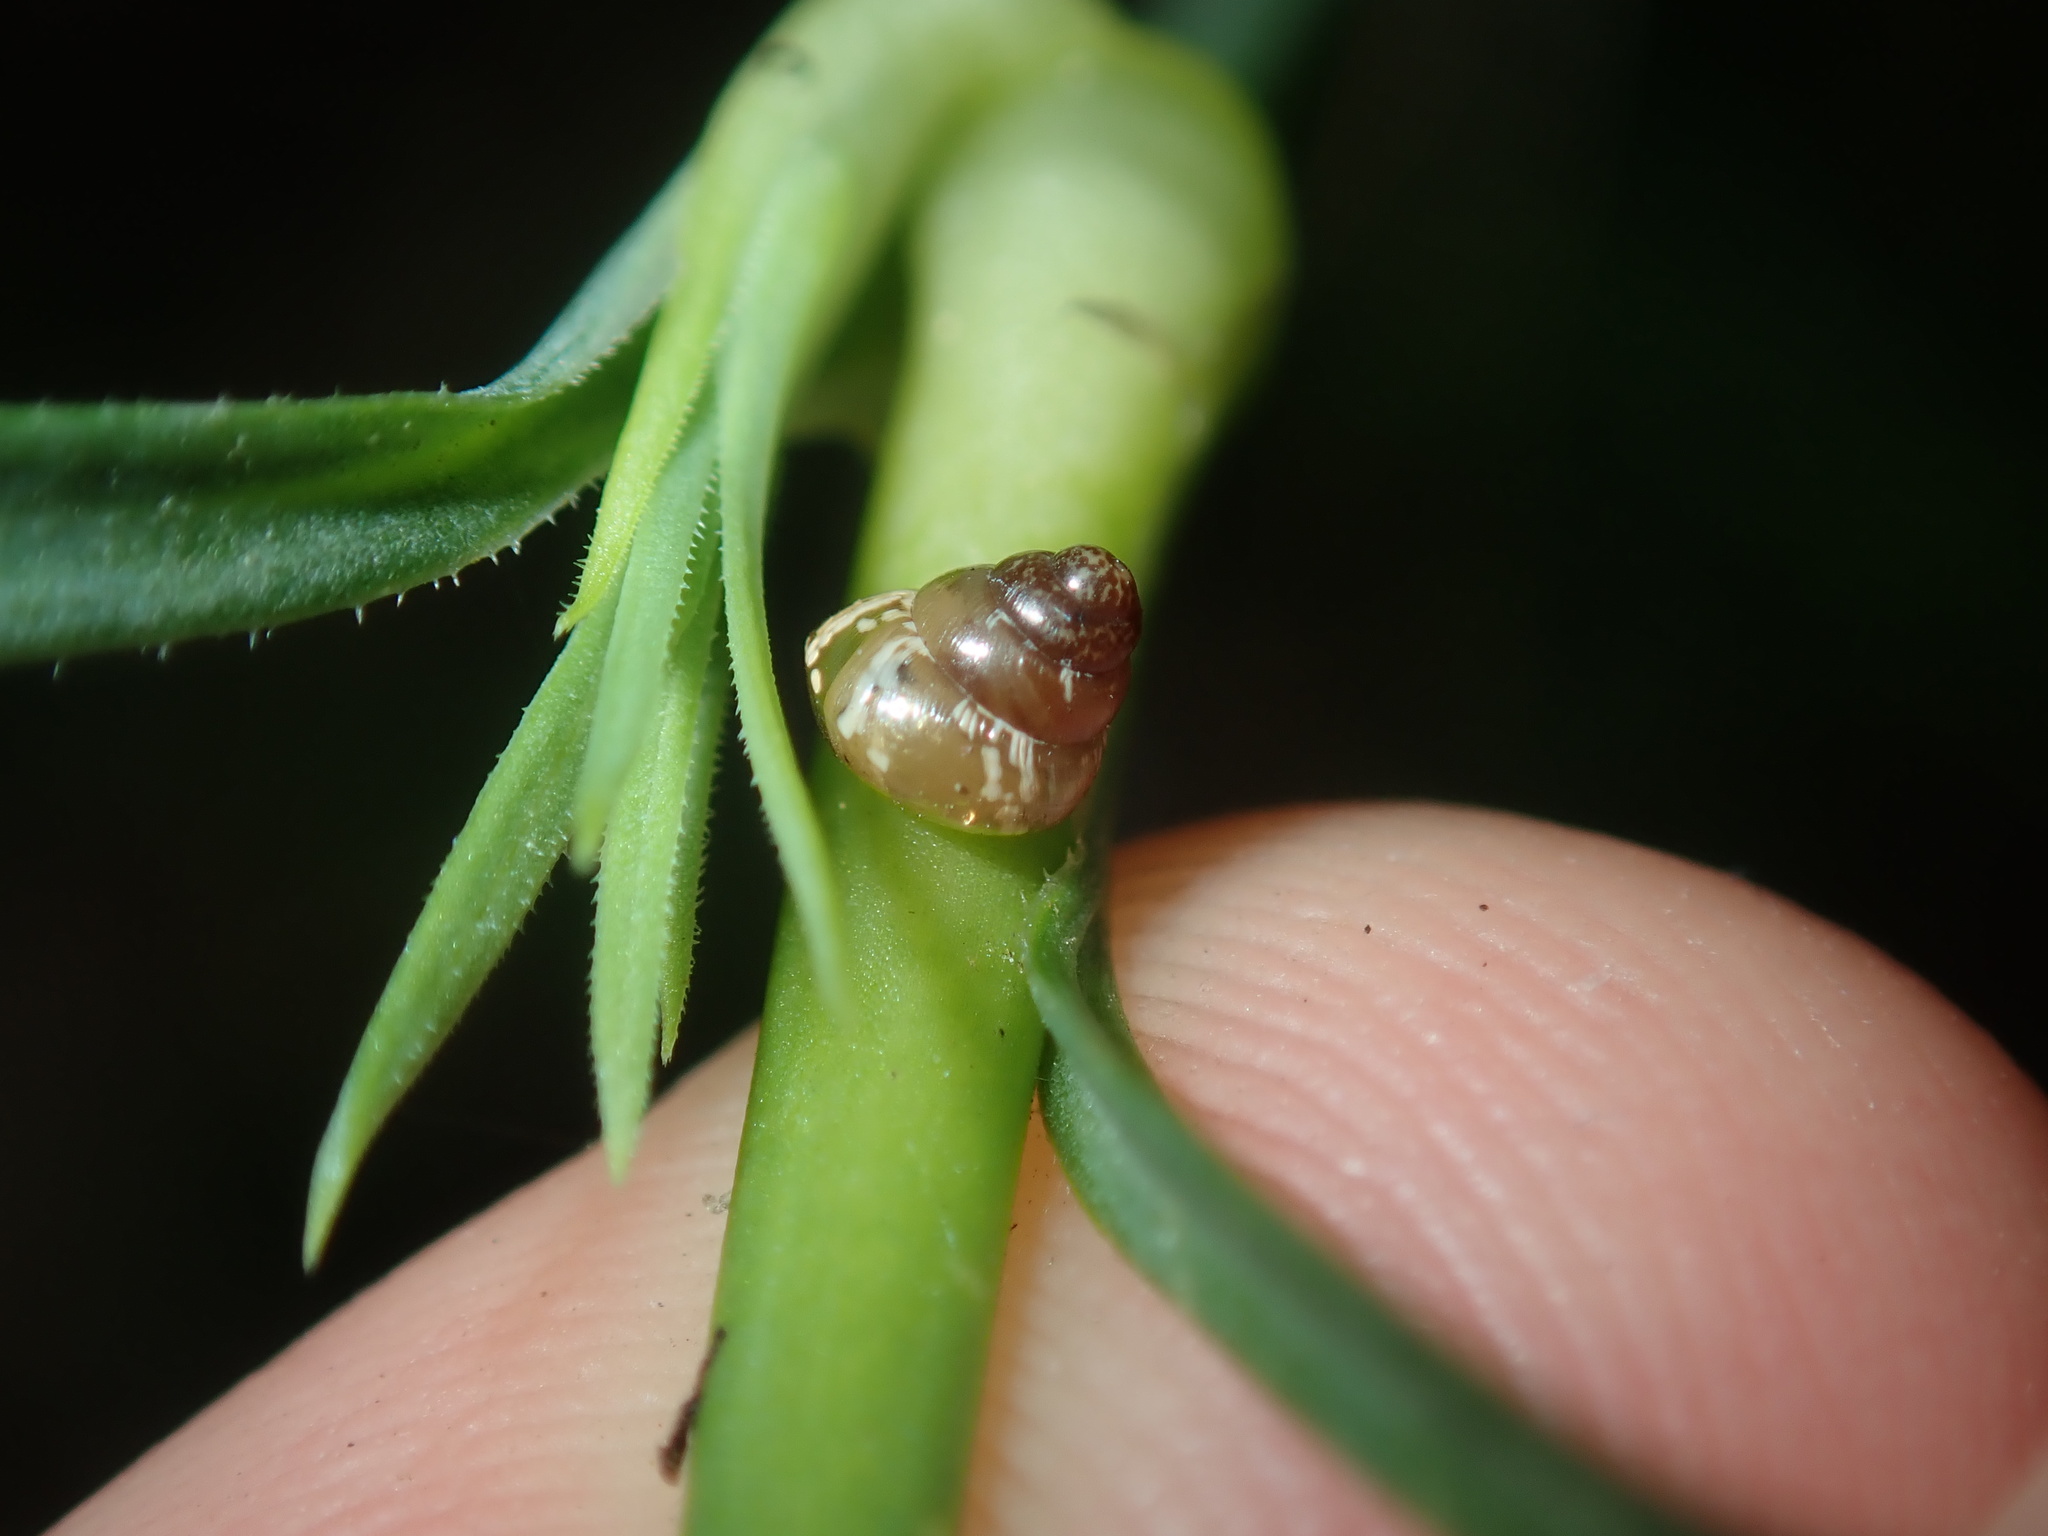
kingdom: Animalia
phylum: Mollusca
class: Gastropoda
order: Stylommatophora
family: Geomitridae
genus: Cochlicella
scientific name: Cochlicella barbara
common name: Potbellied helicellid
